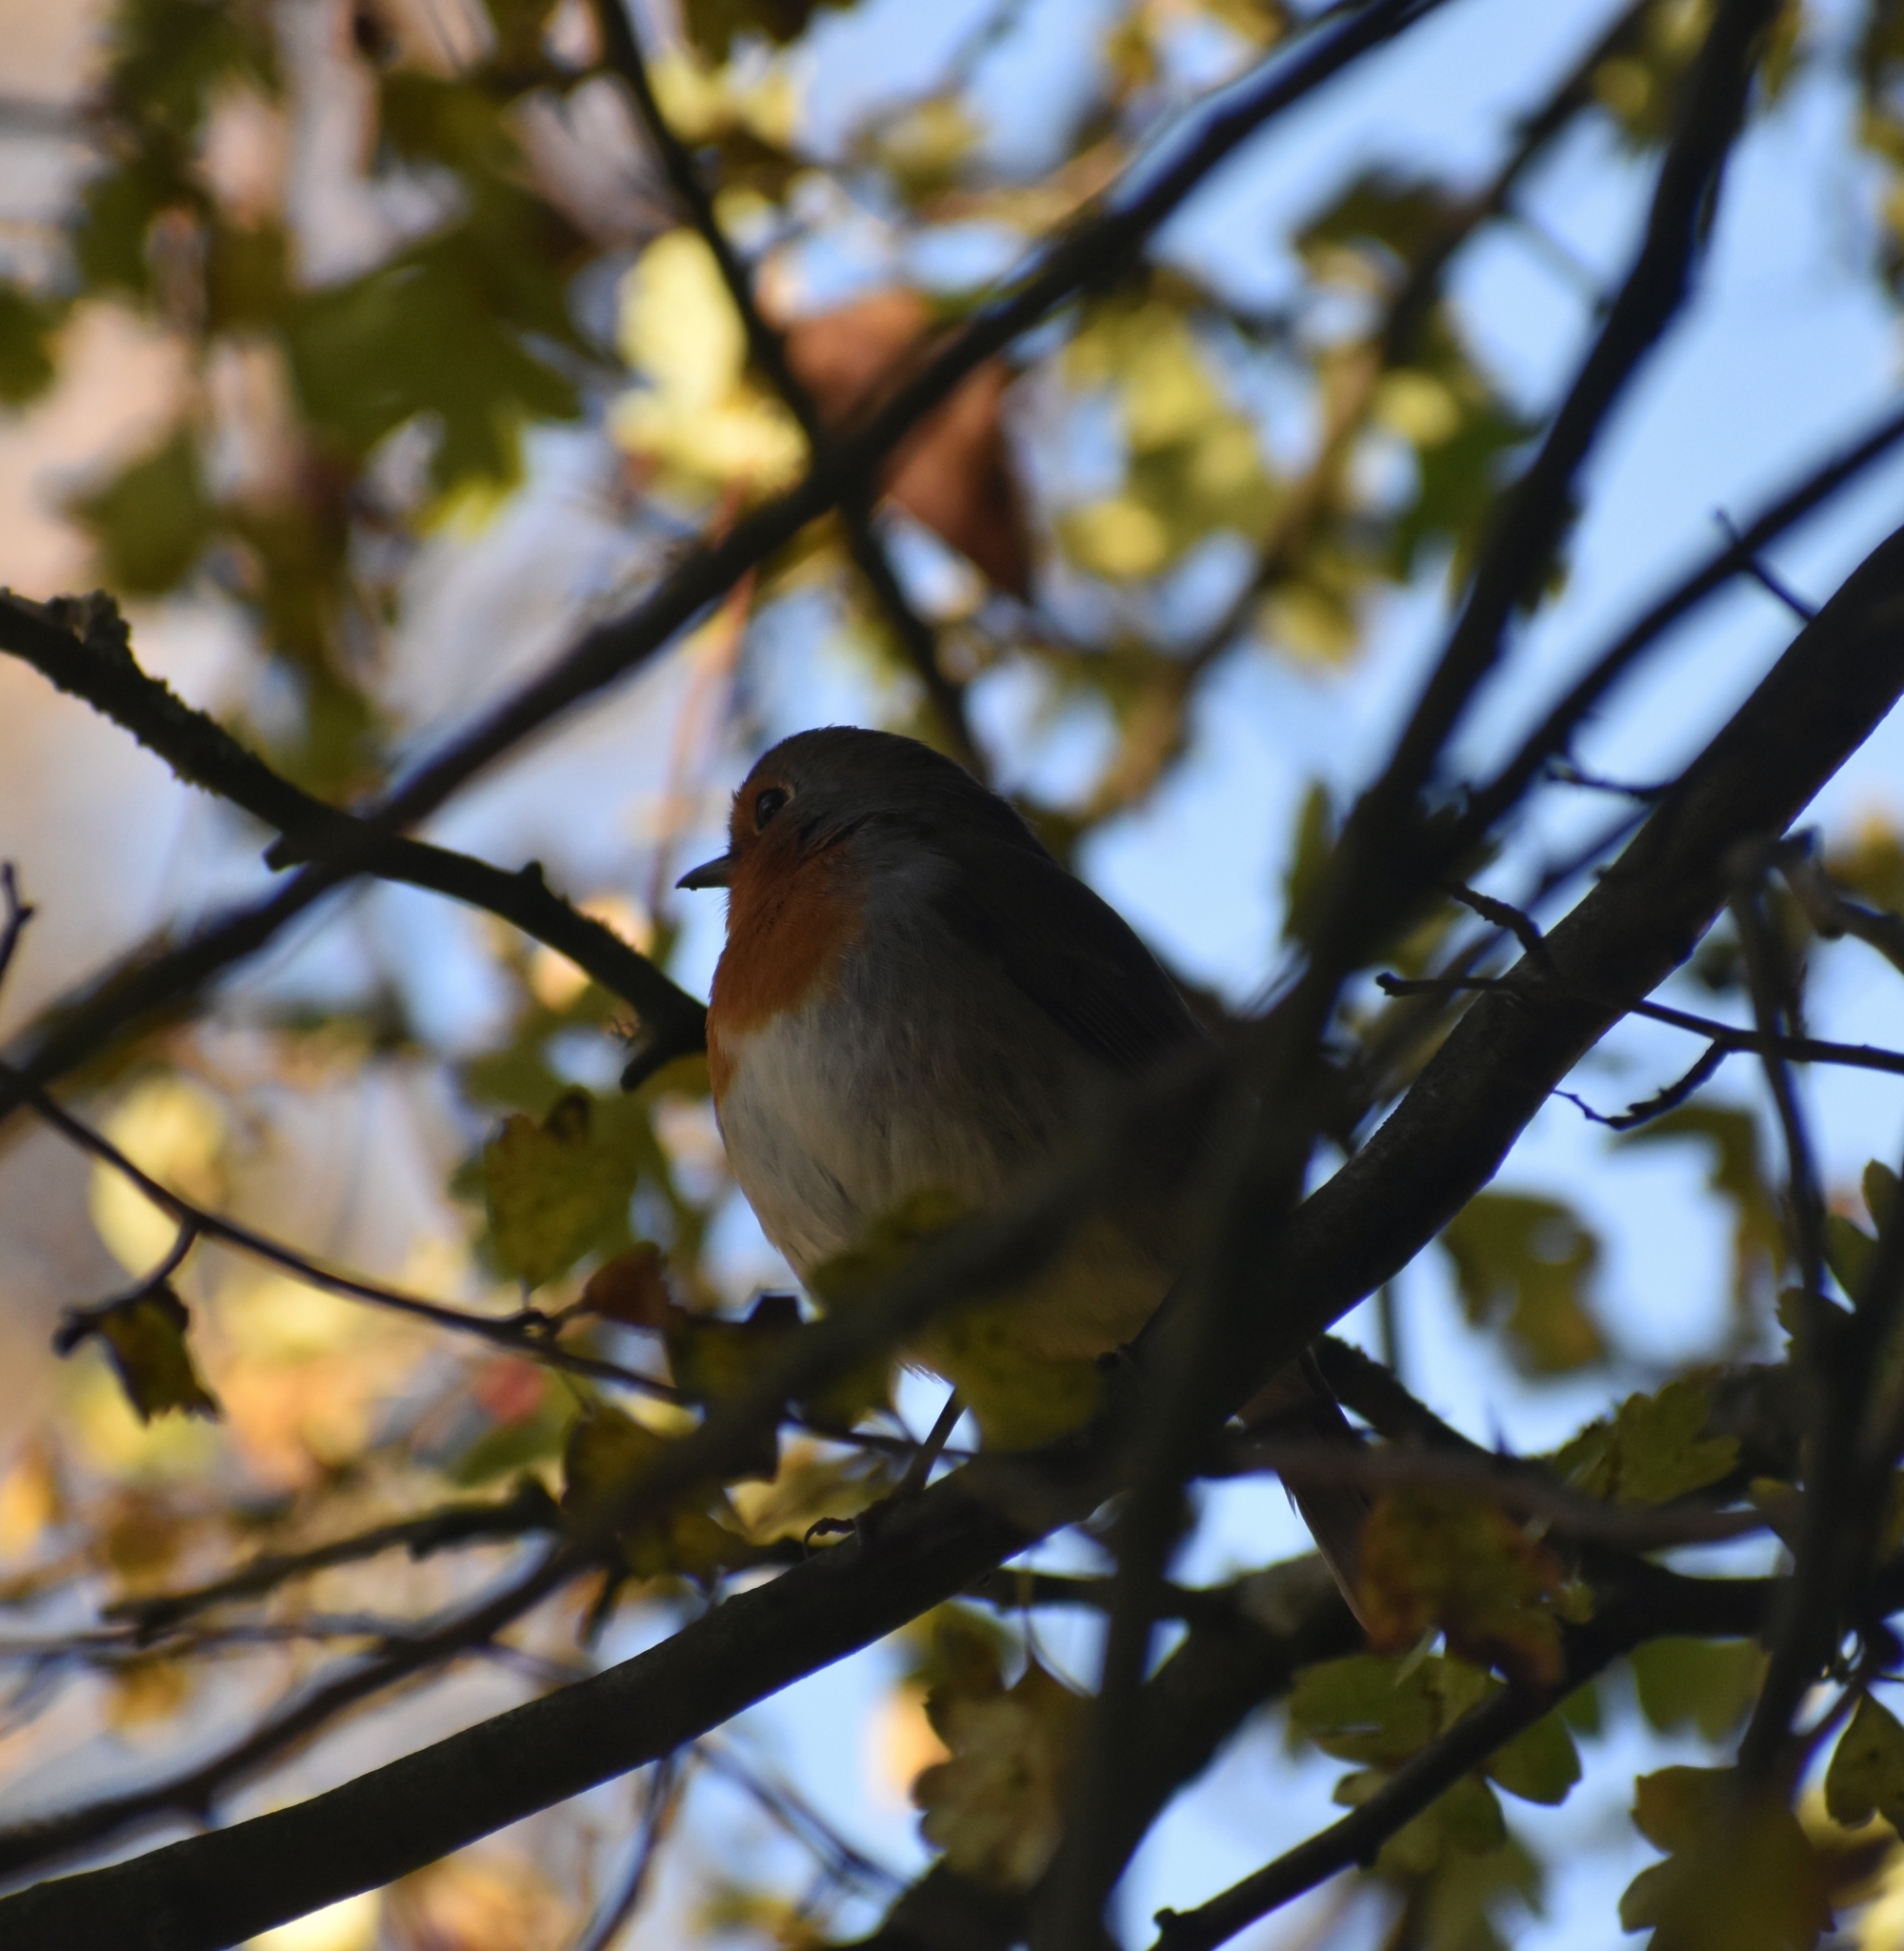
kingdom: Animalia
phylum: Chordata
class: Aves
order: Passeriformes
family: Muscicapidae
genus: Erithacus
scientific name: Erithacus rubecula
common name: European robin
